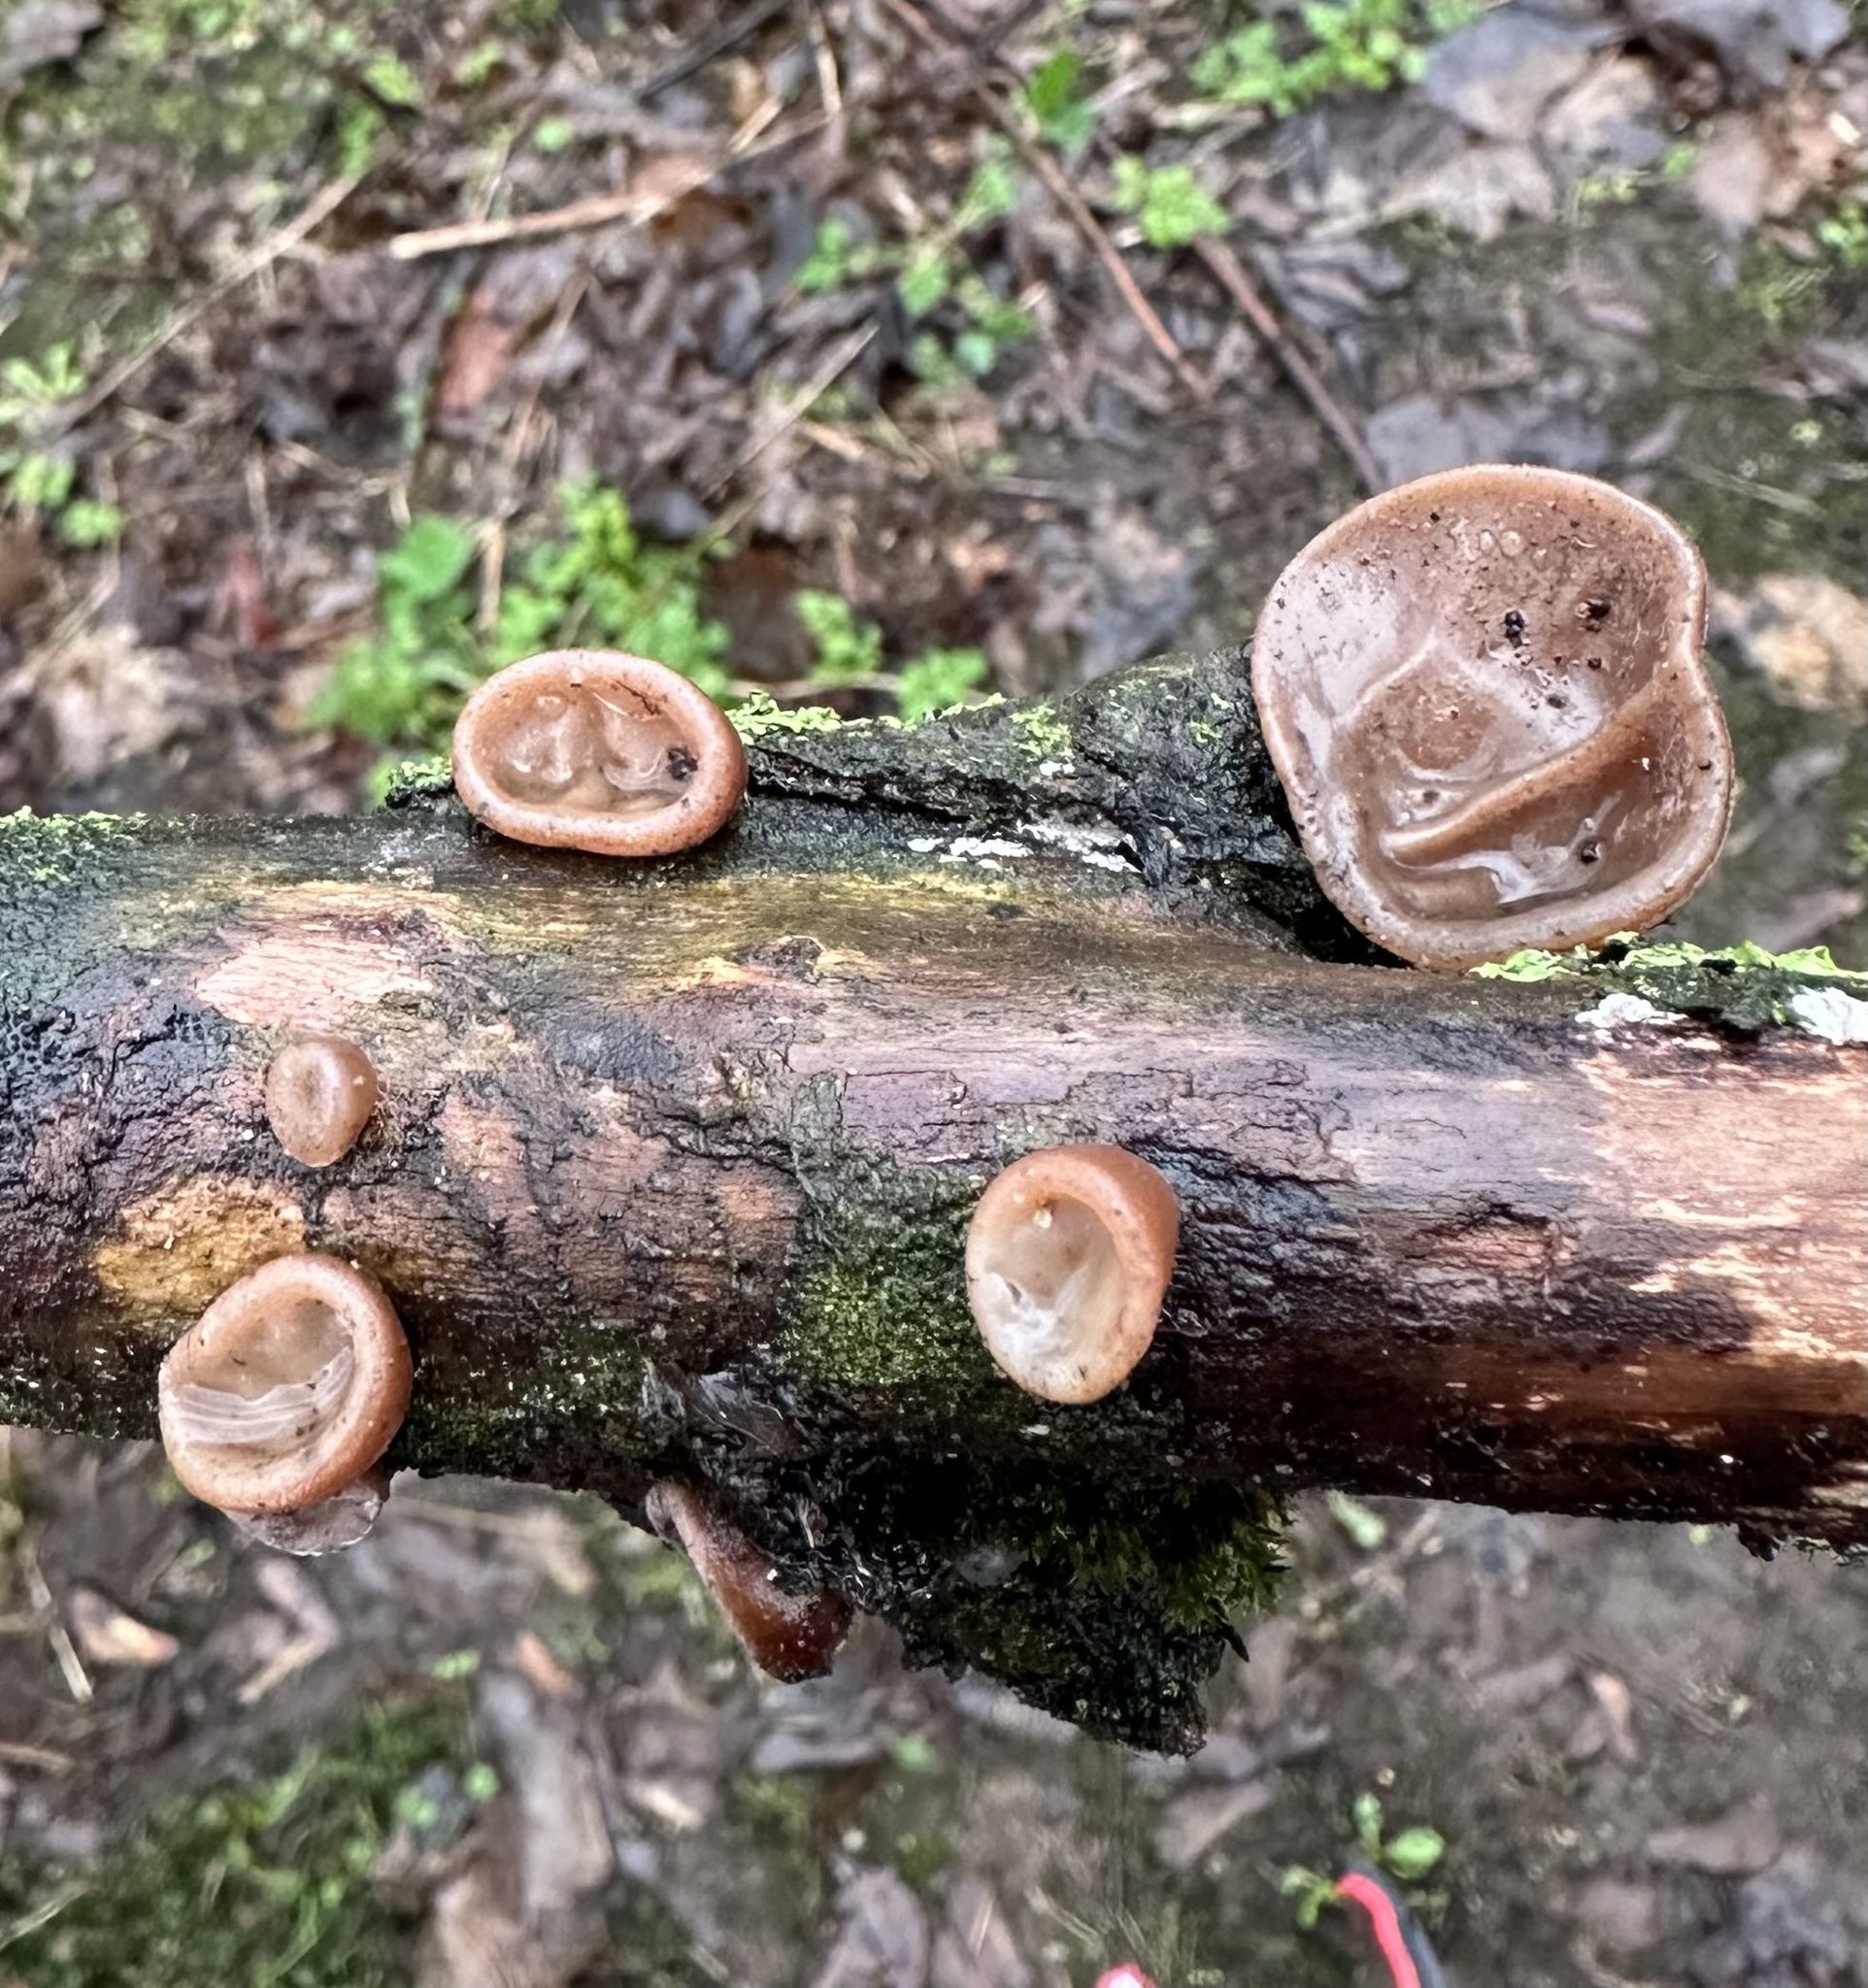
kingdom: Fungi
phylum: Basidiomycota
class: Agaricomycetes
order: Auriculariales
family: Auriculariaceae
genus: Auricularia
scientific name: Auricularia auricula-judae
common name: Jelly ear
